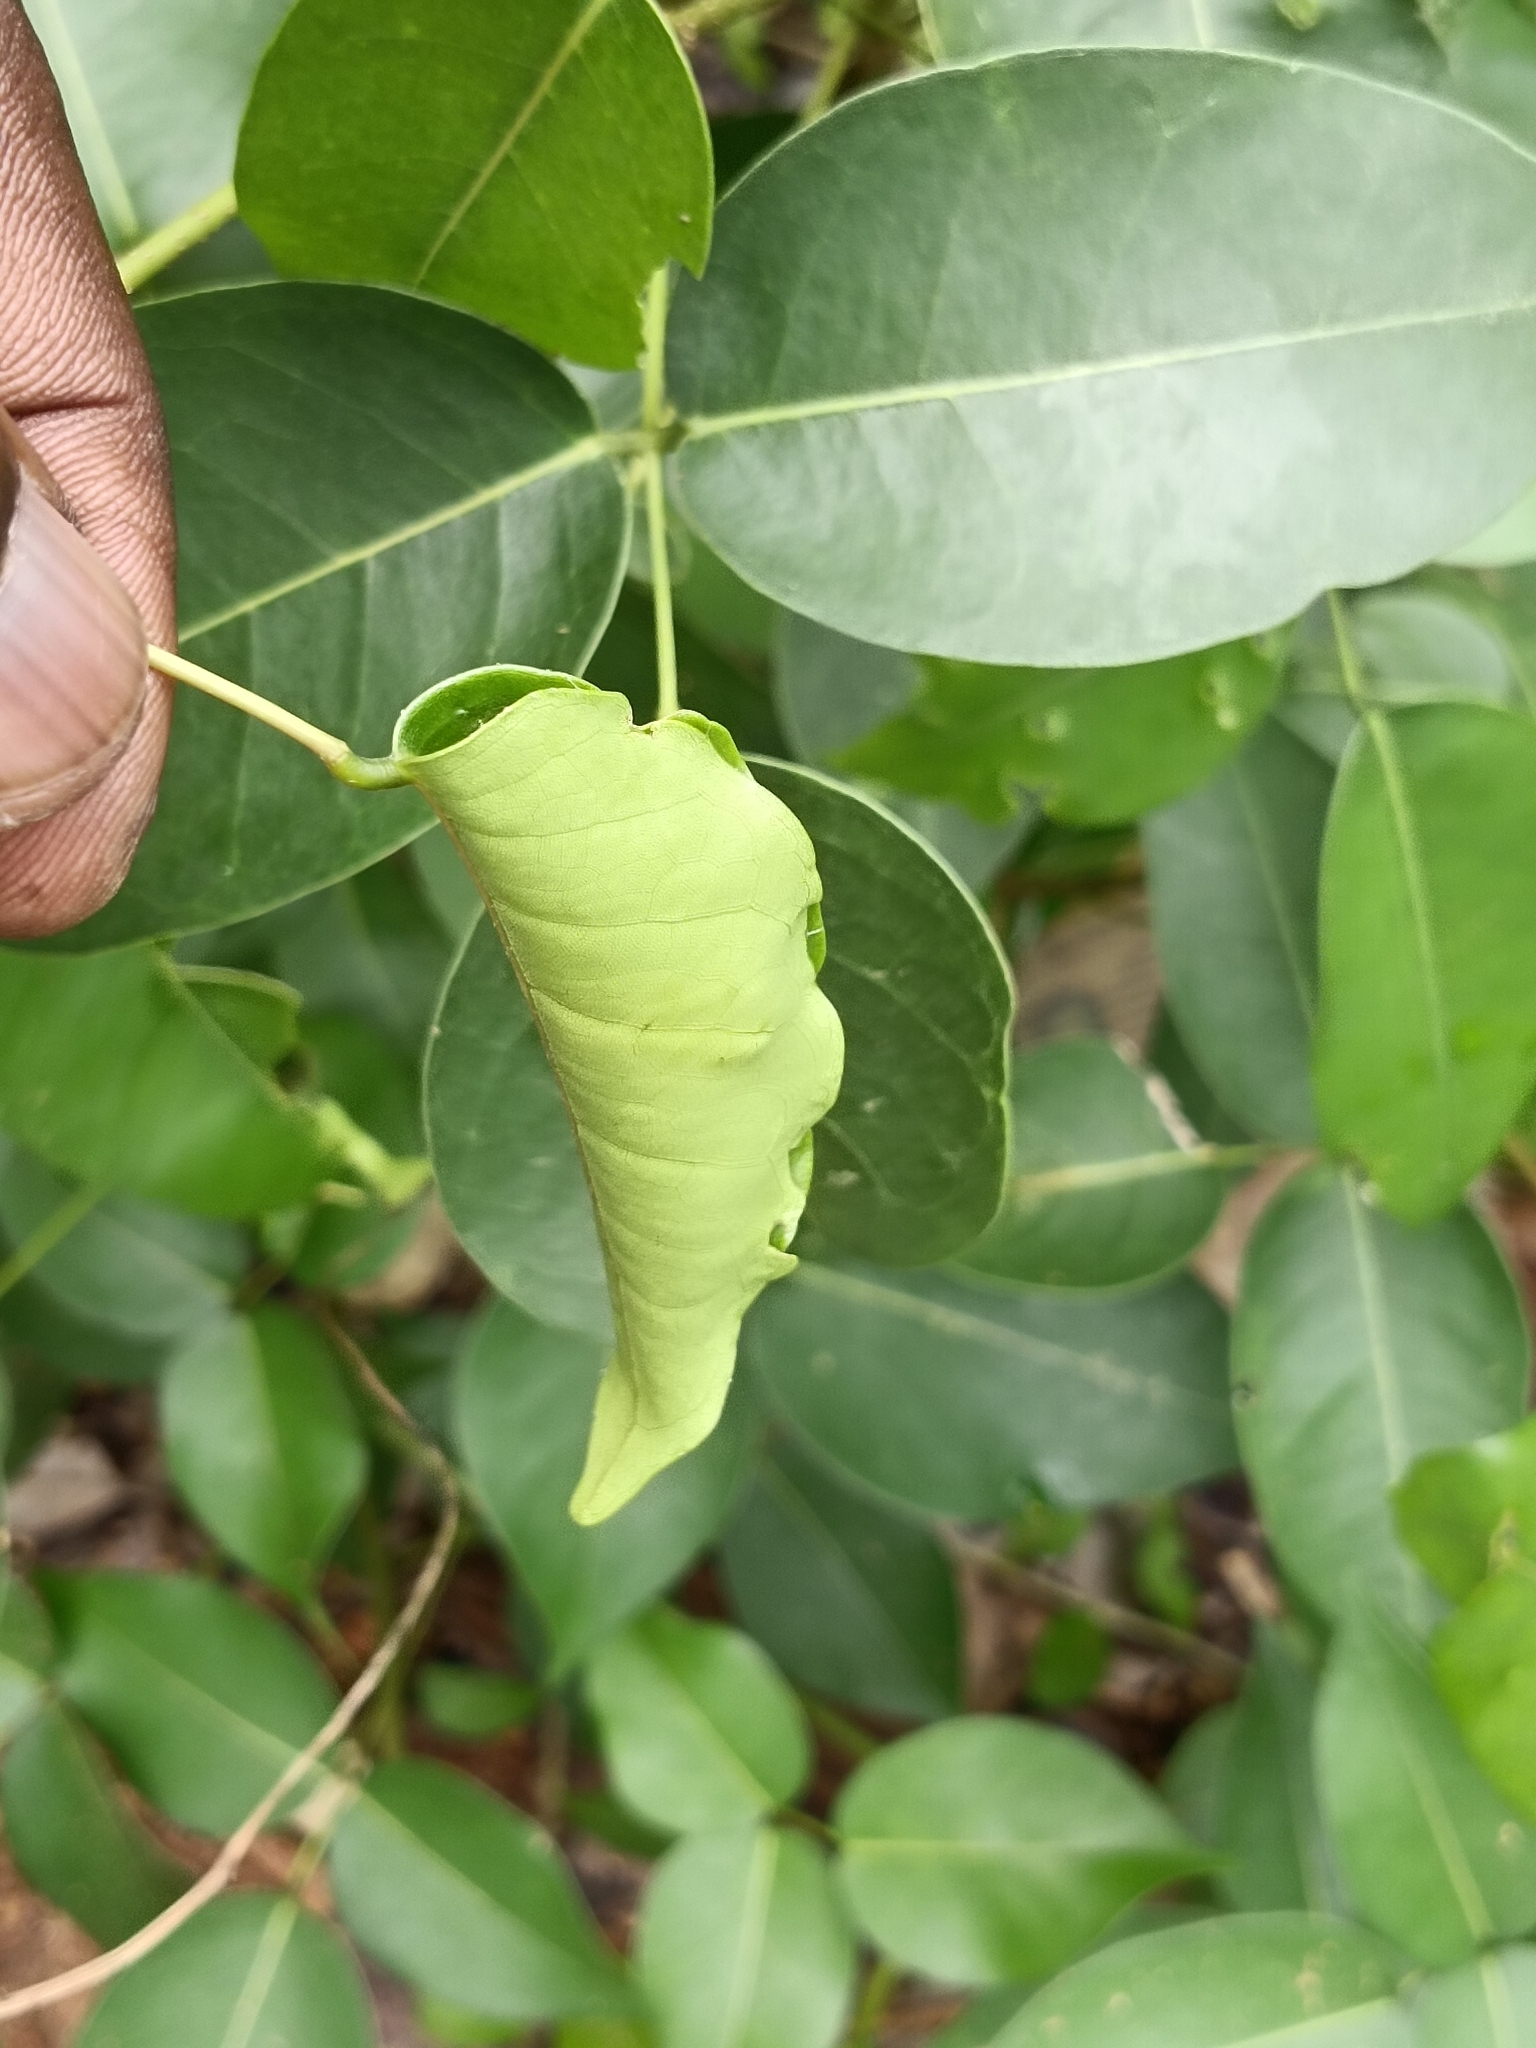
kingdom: Animalia
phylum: Arthropoda
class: Insecta
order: Lepidoptera
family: Hesperiidae
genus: Hasora
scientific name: Hasora badra
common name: Common awl
